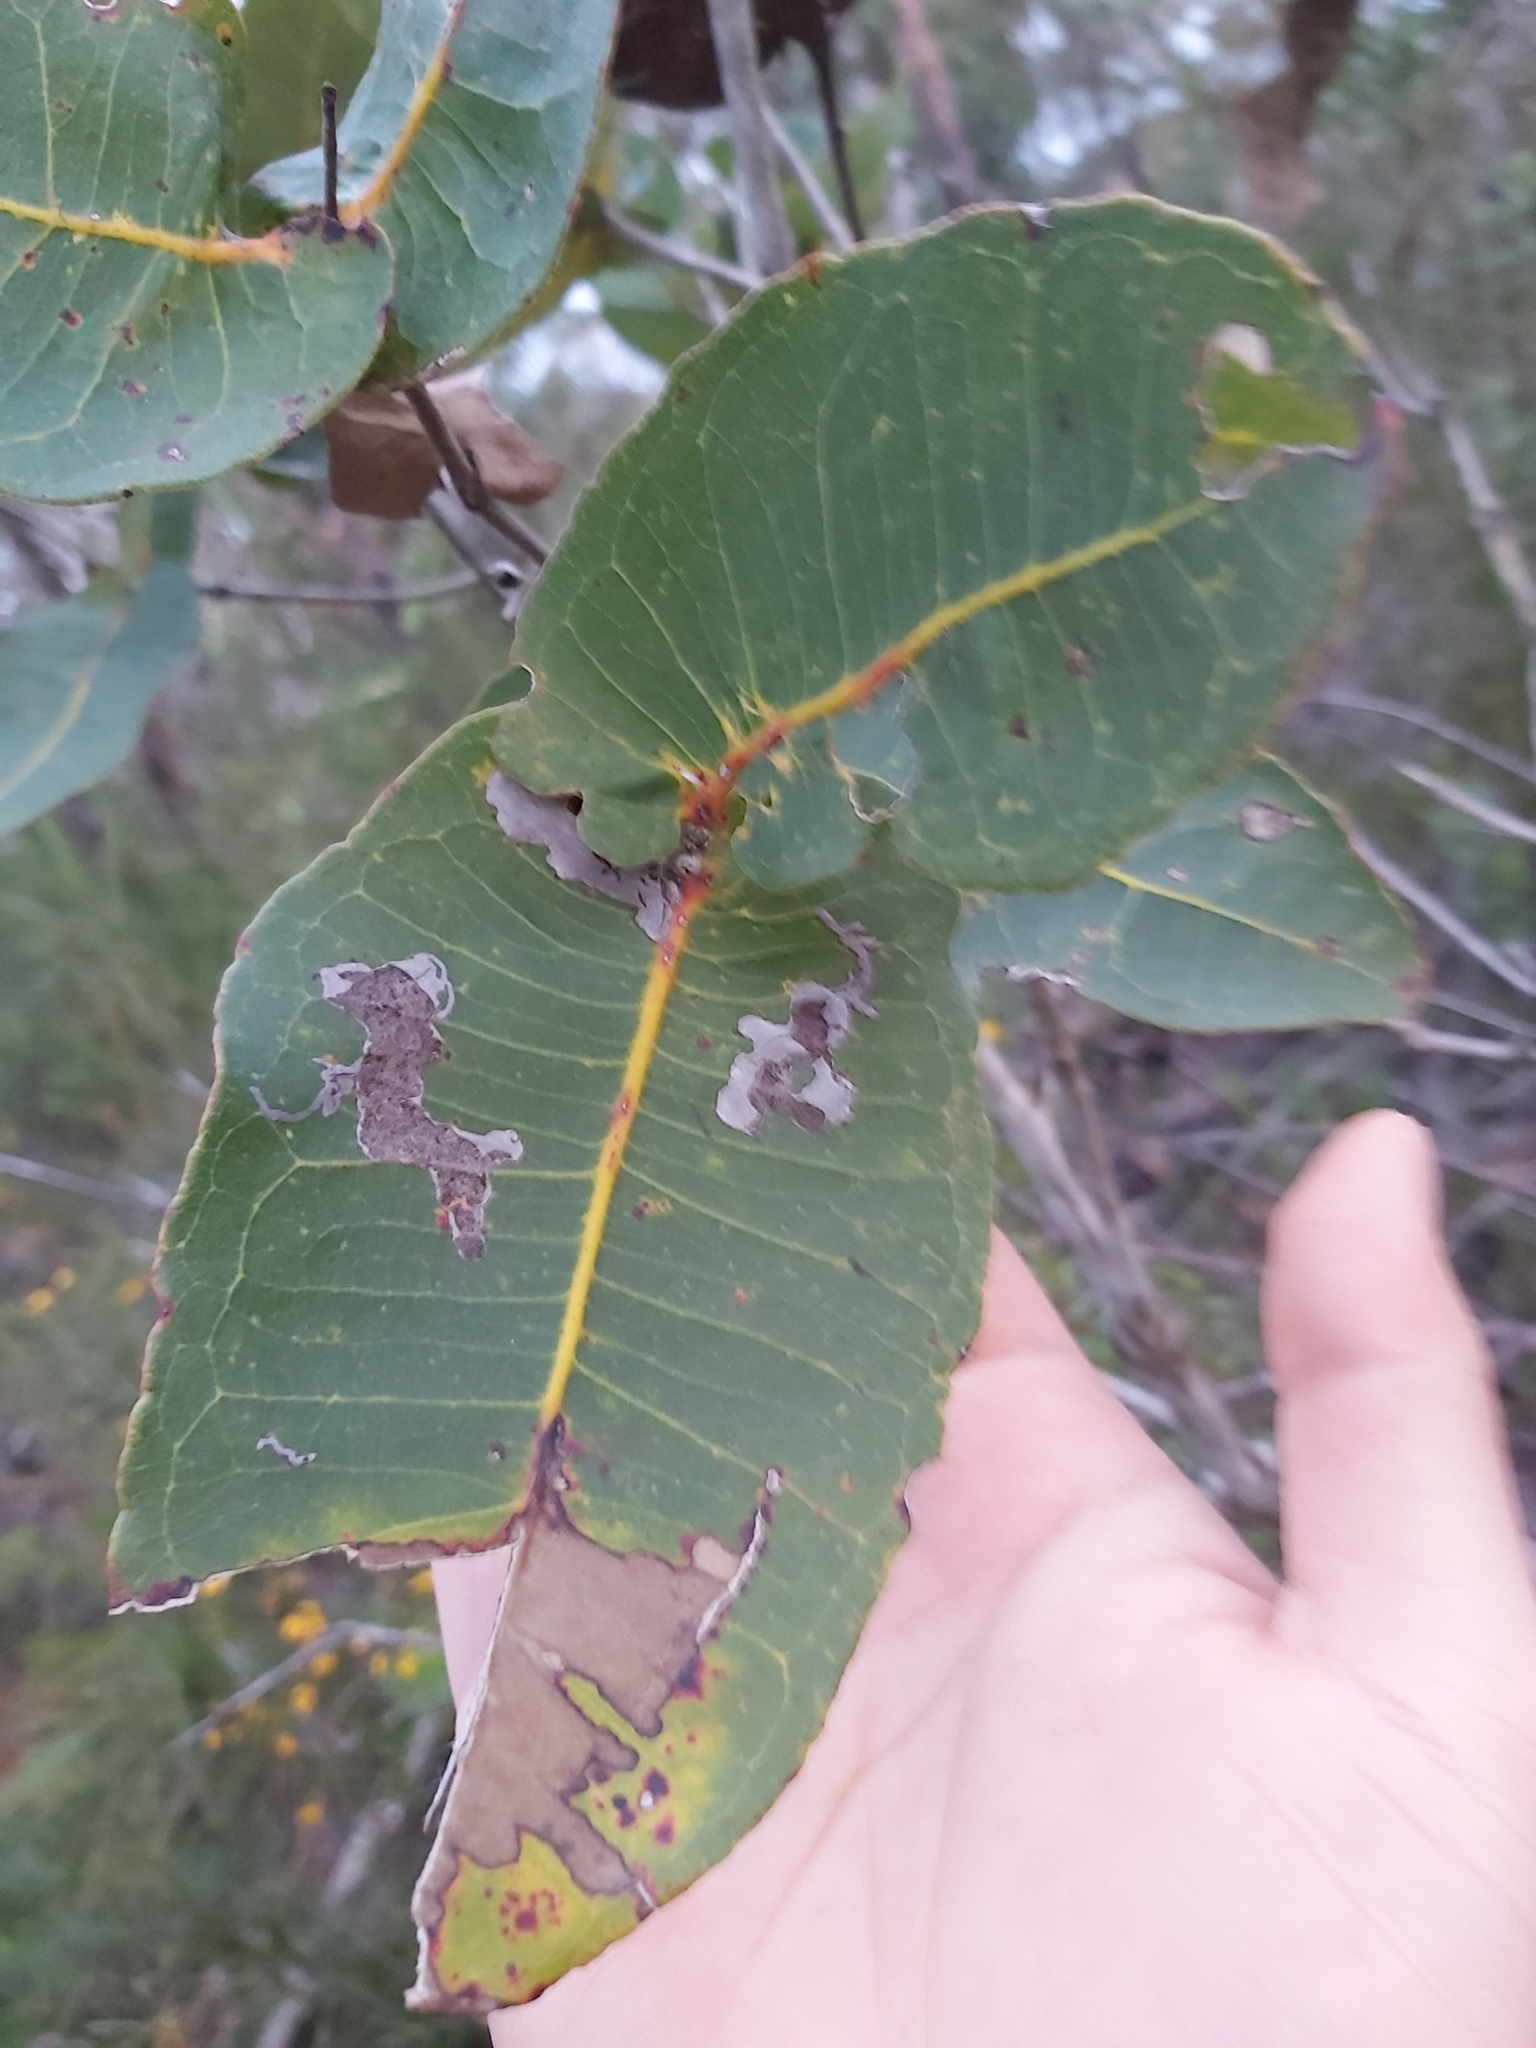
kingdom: Plantae
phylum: Tracheophyta
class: Magnoliopsida
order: Myrtales
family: Myrtaceae
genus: Angophora
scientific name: Angophora hispida
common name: Dwarf-apple
